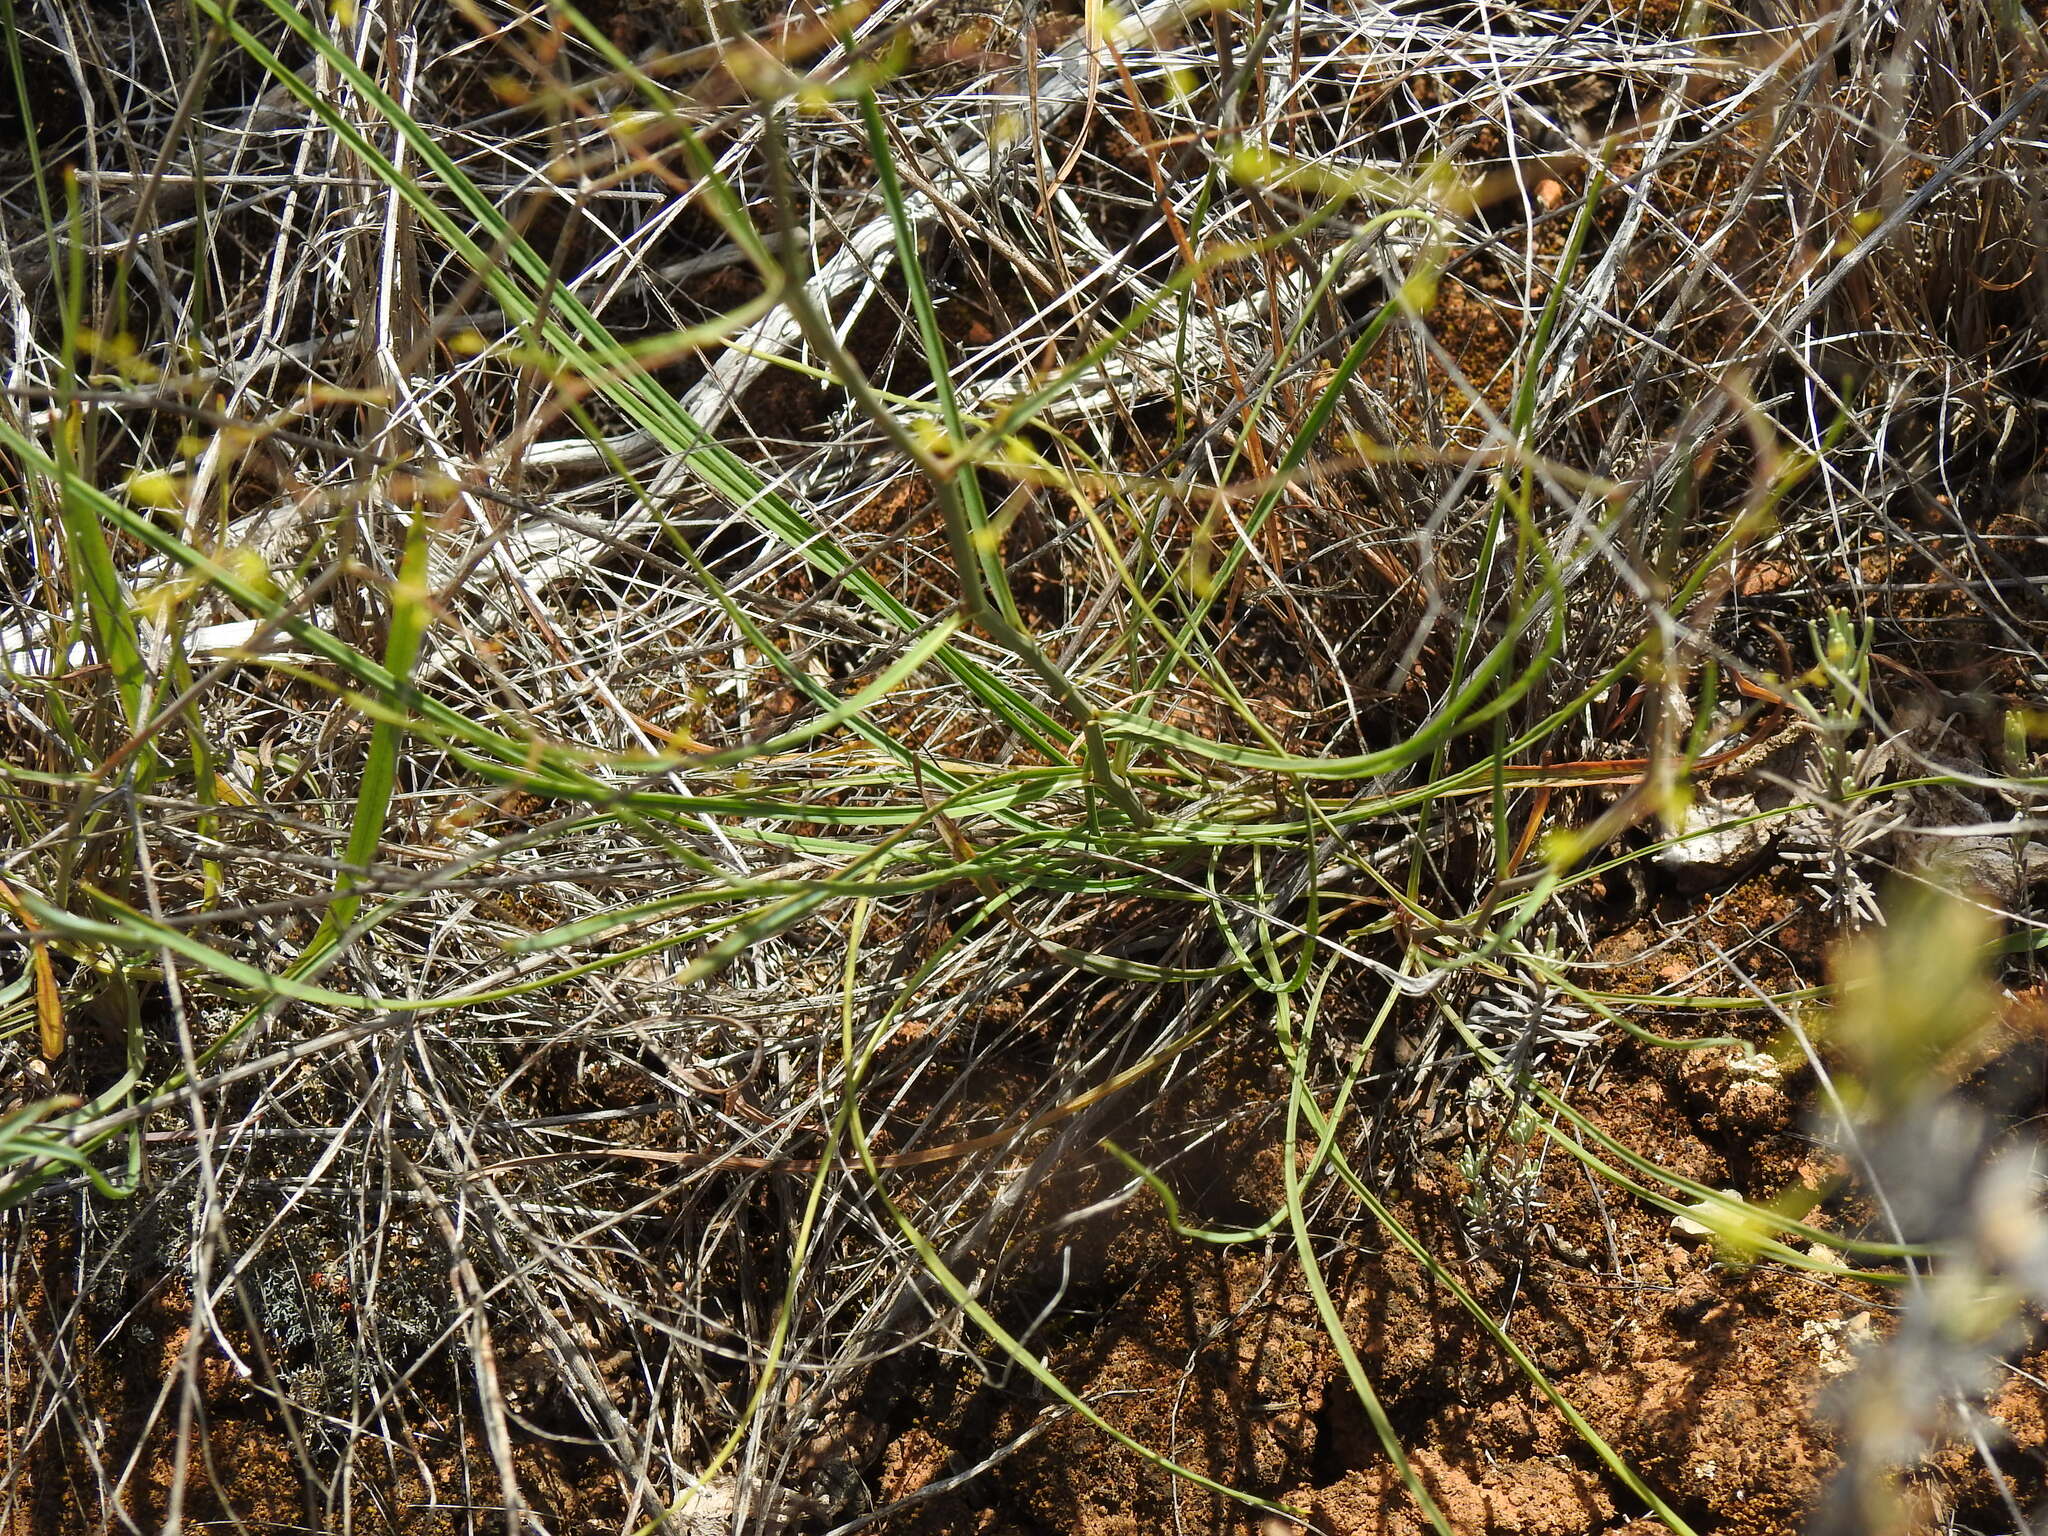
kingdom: Plantae
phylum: Tracheophyta
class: Magnoliopsida
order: Apiales
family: Apiaceae
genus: Bupleurum
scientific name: Bupleurum rigidum
